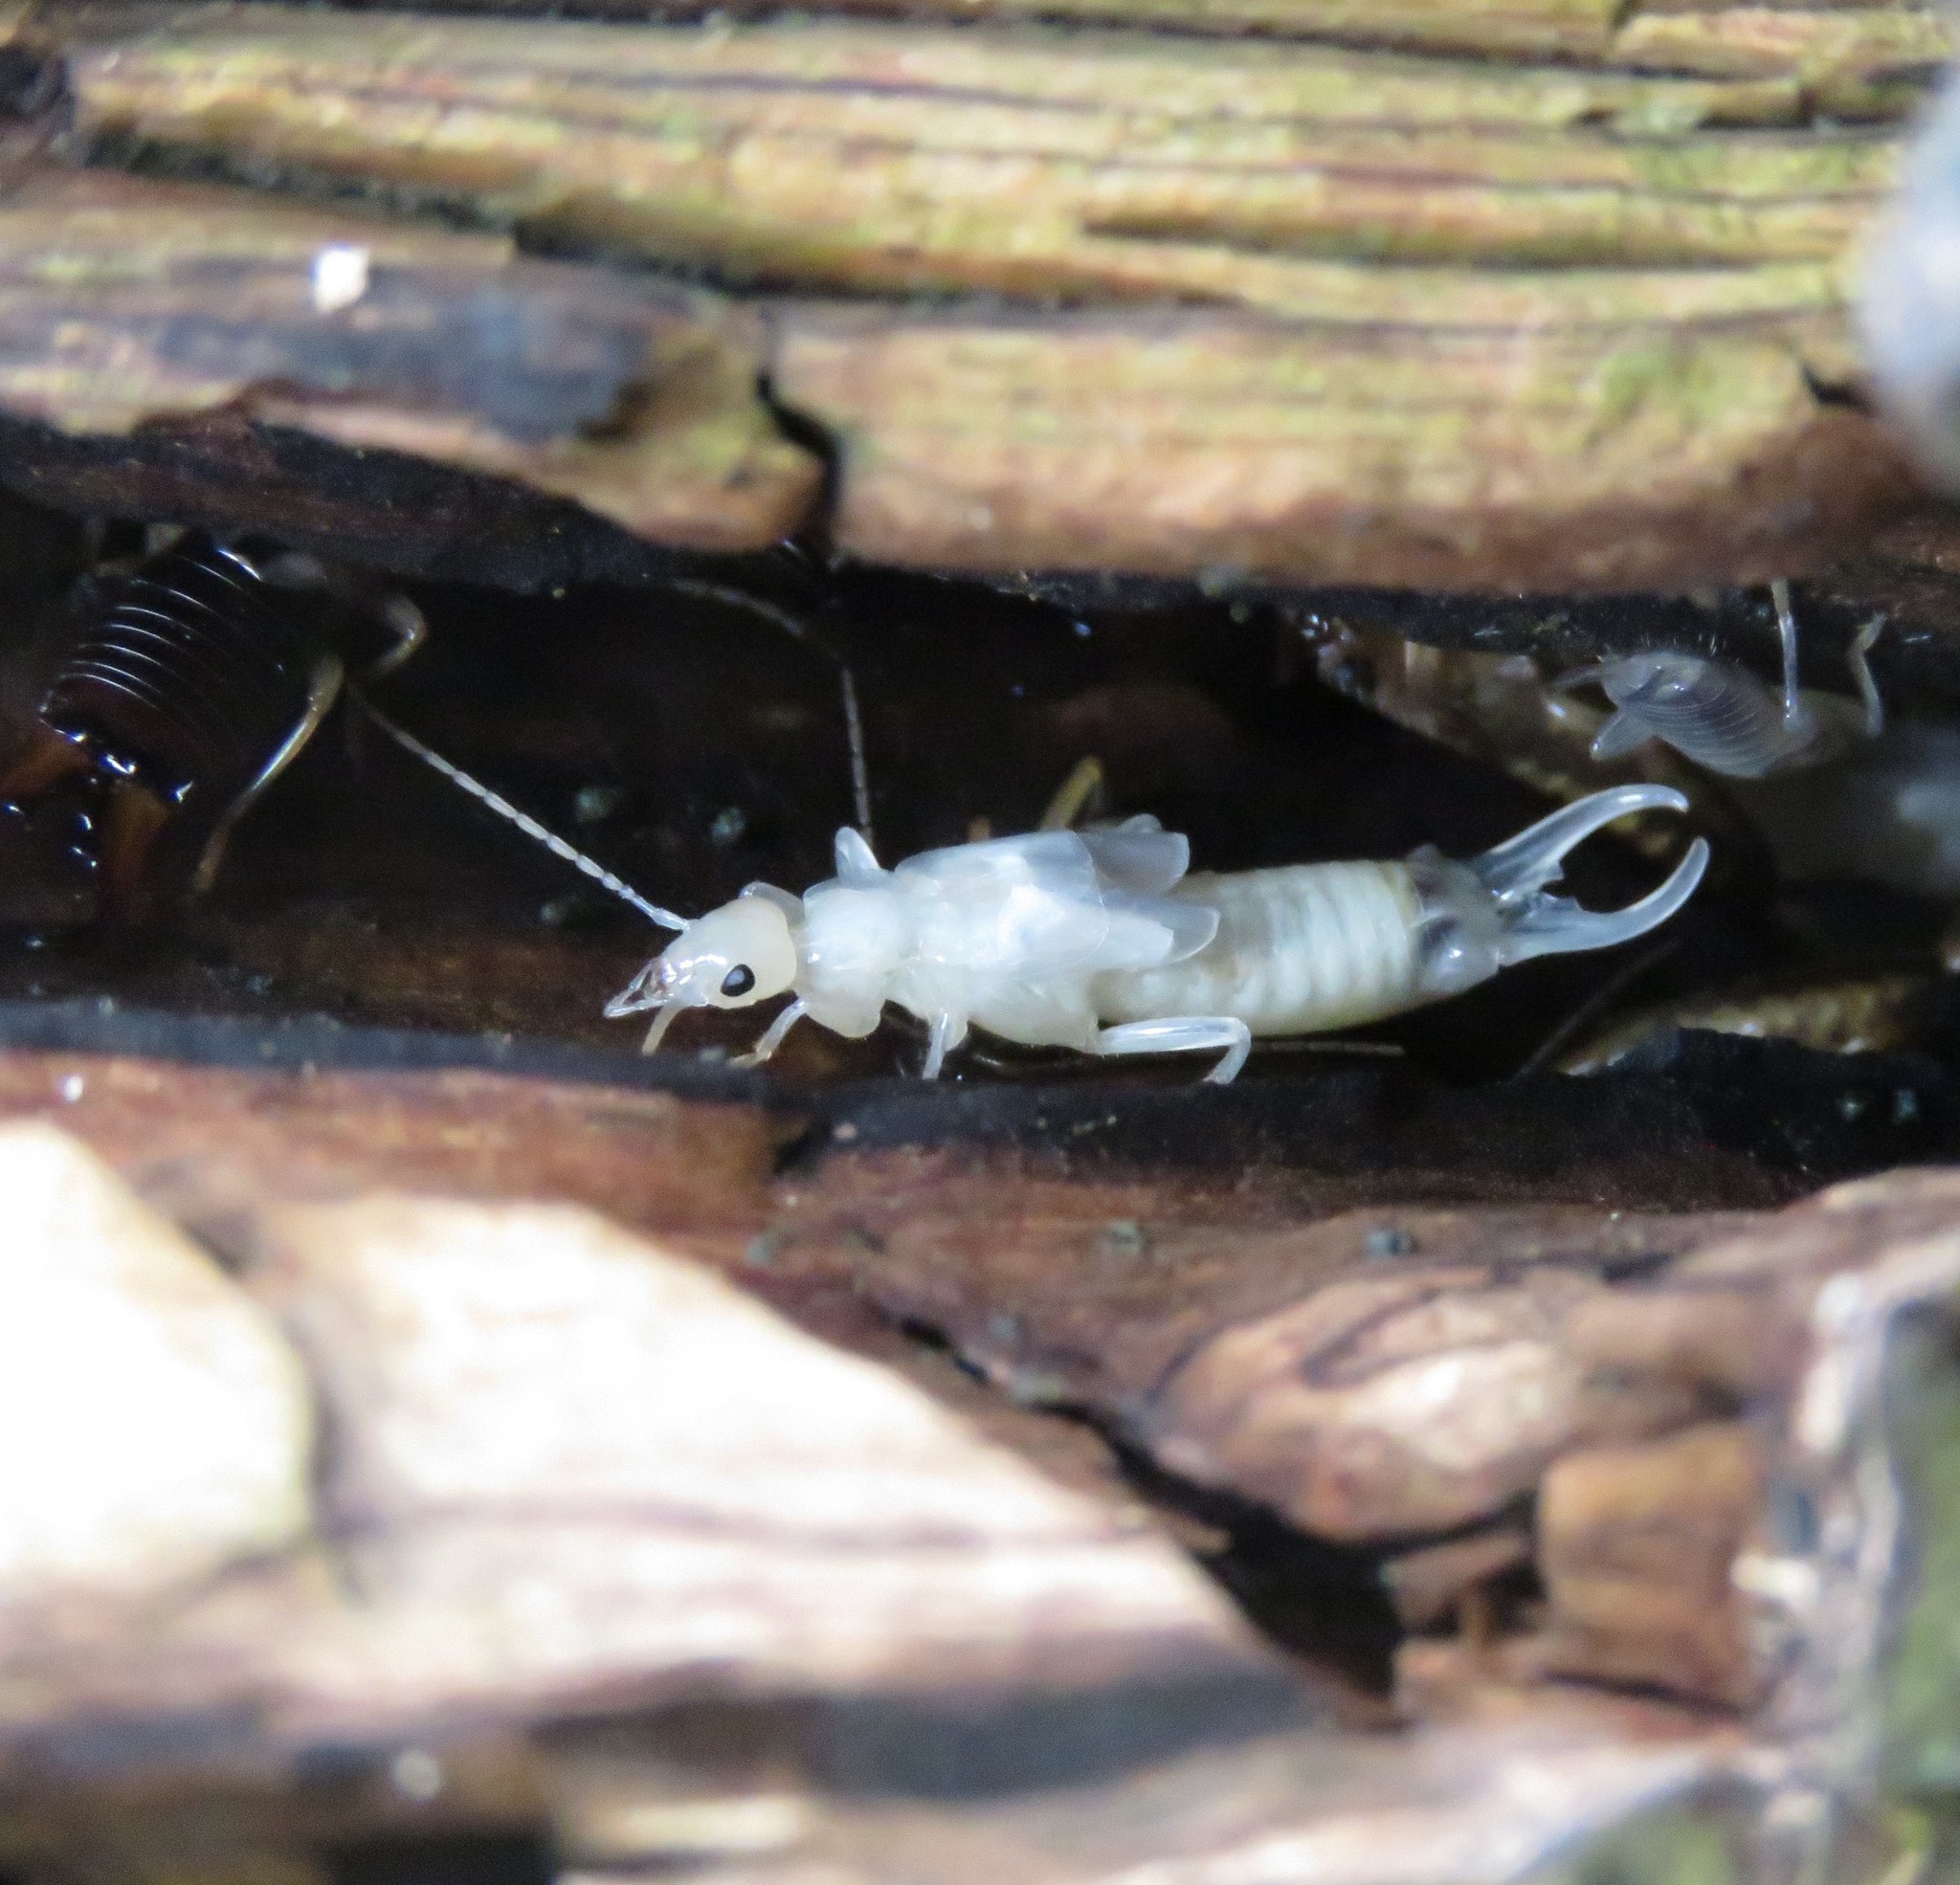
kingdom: Animalia
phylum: Arthropoda
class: Insecta
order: Dermaptera
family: Forficulidae
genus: Forficula
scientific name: Forficula
